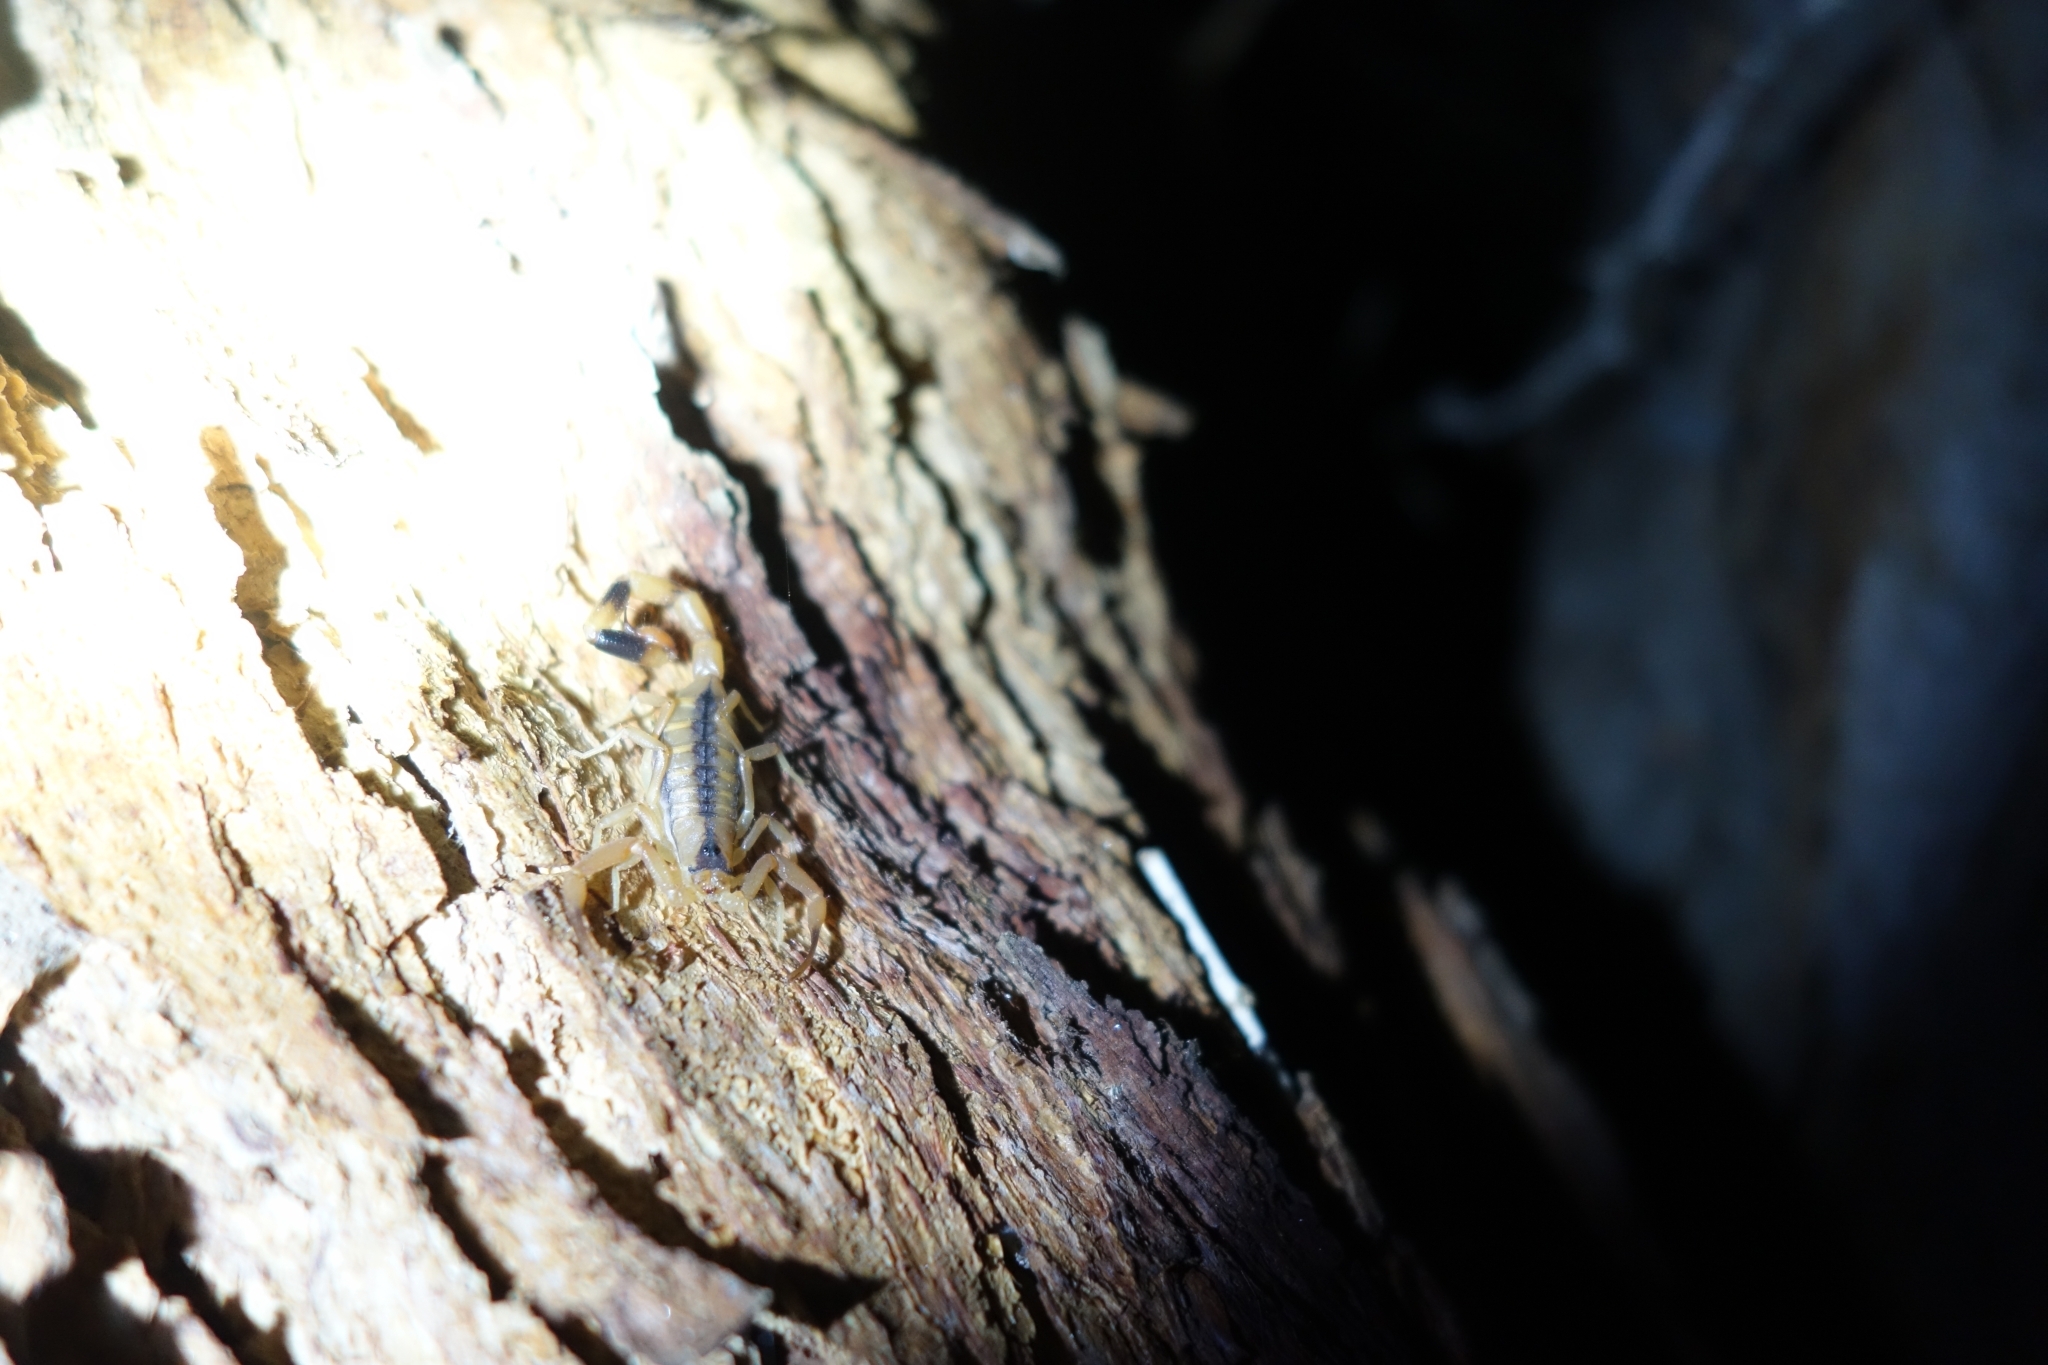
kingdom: Animalia
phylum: Arthropoda
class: Arachnida
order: Scorpiones
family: Buthidae
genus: Uroplectes
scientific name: Uroplectes otjimbinguensis
